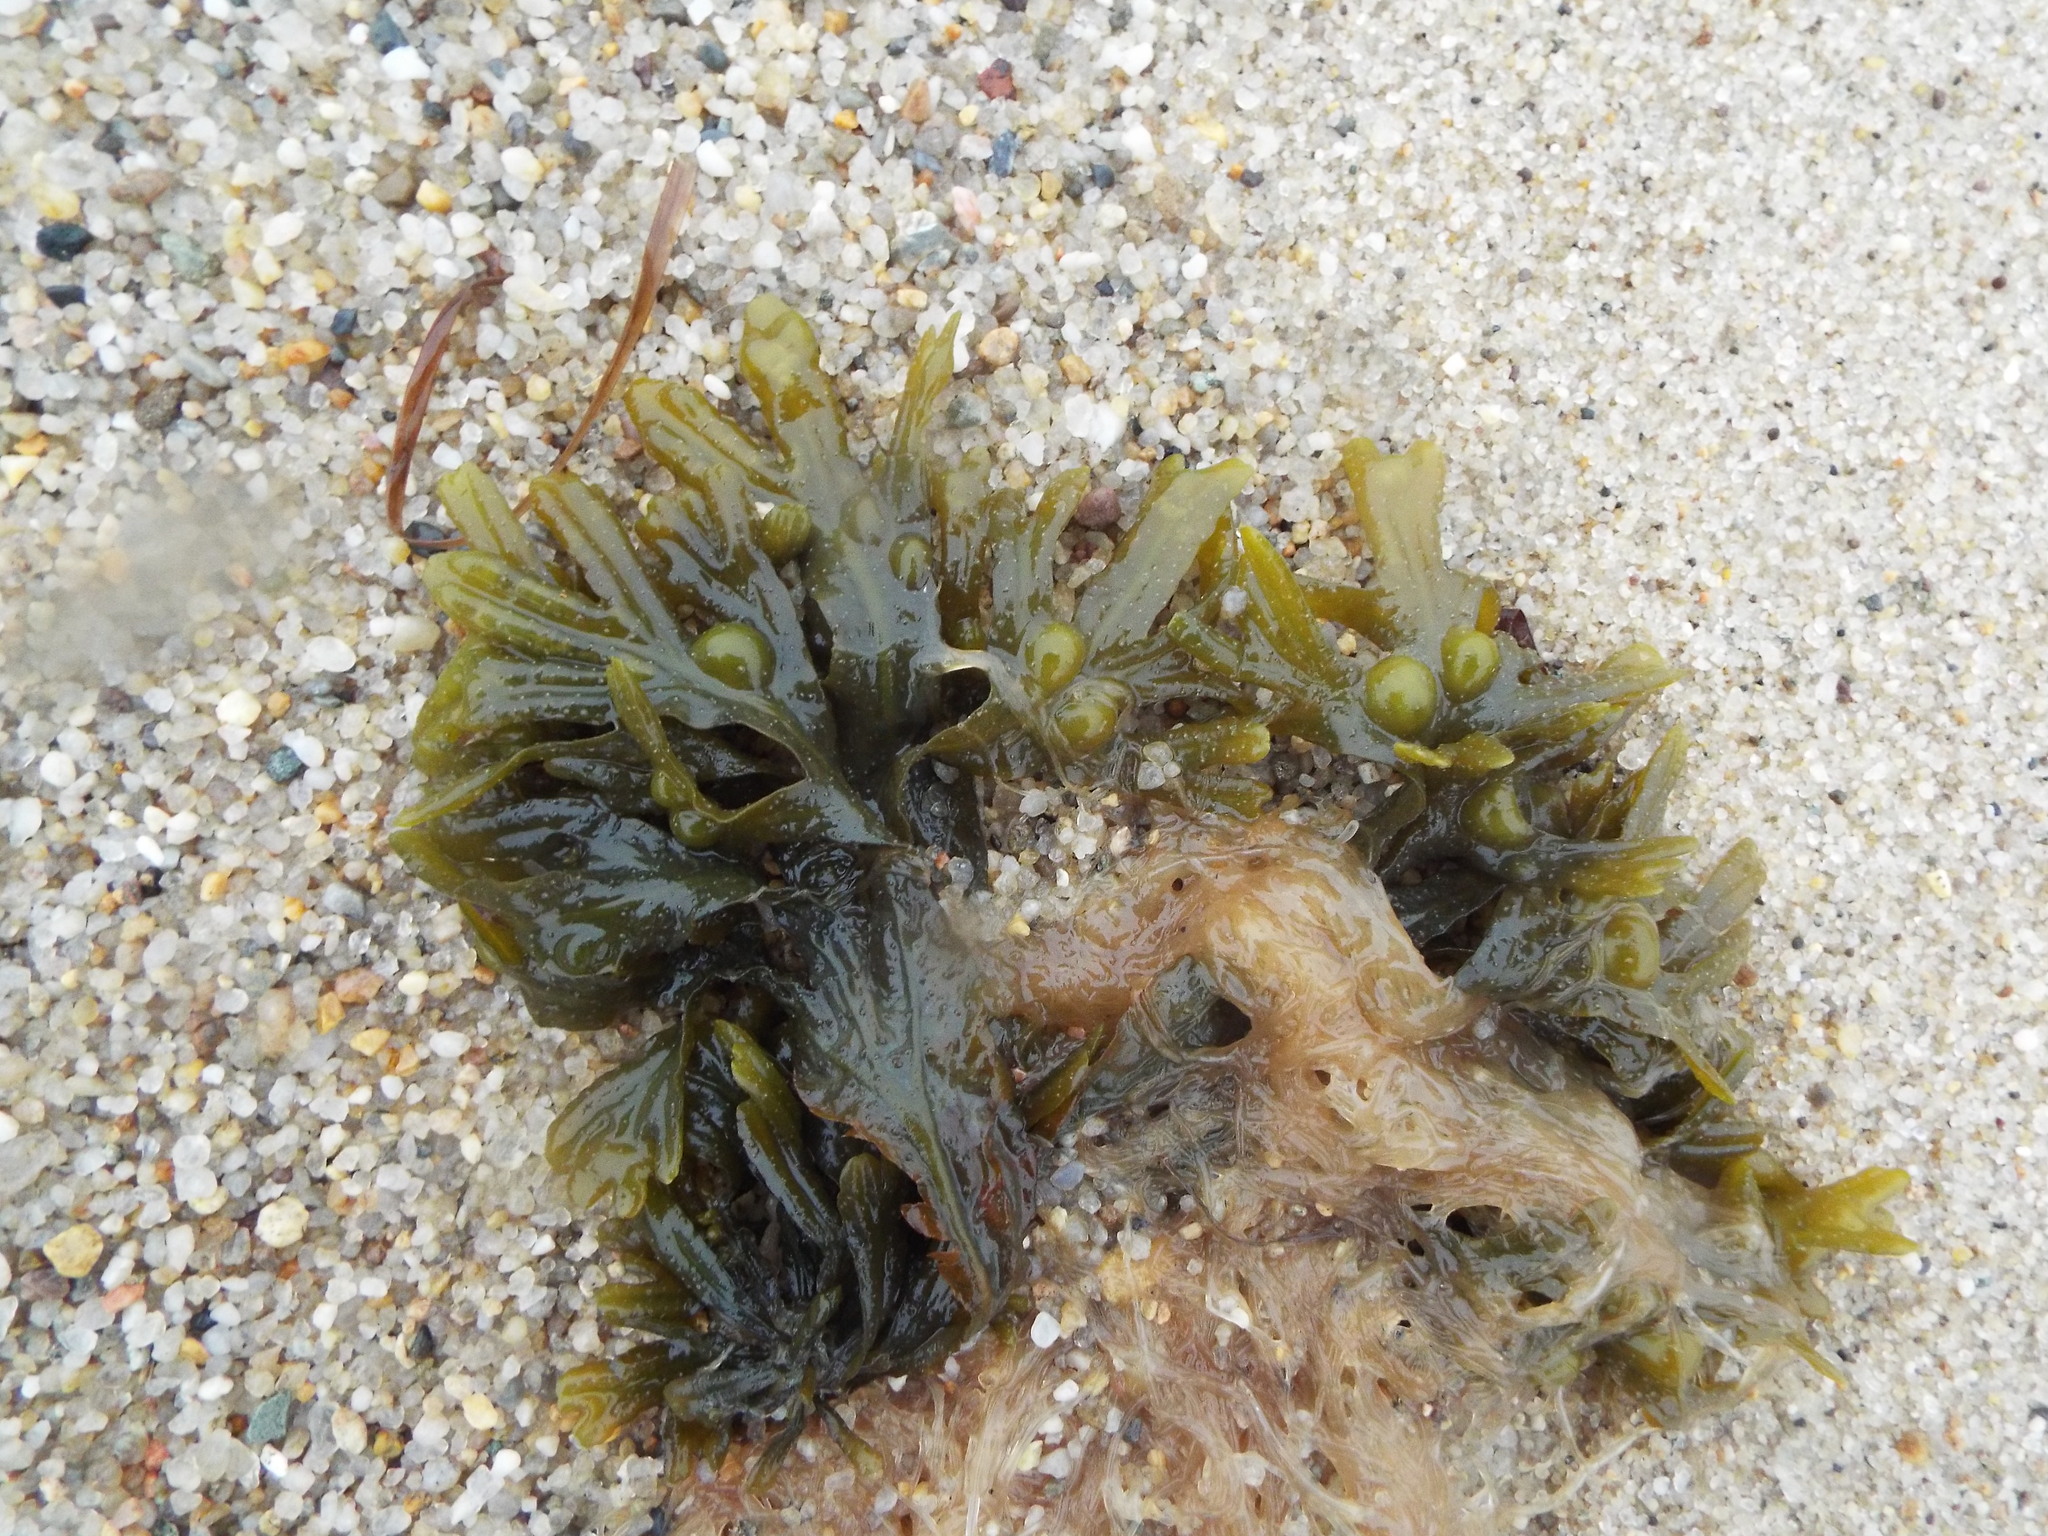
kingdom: Chromista
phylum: Ochrophyta
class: Phaeophyceae
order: Fucales
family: Fucaceae
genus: Fucus
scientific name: Fucus vesiculosus
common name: Bladder wrack
